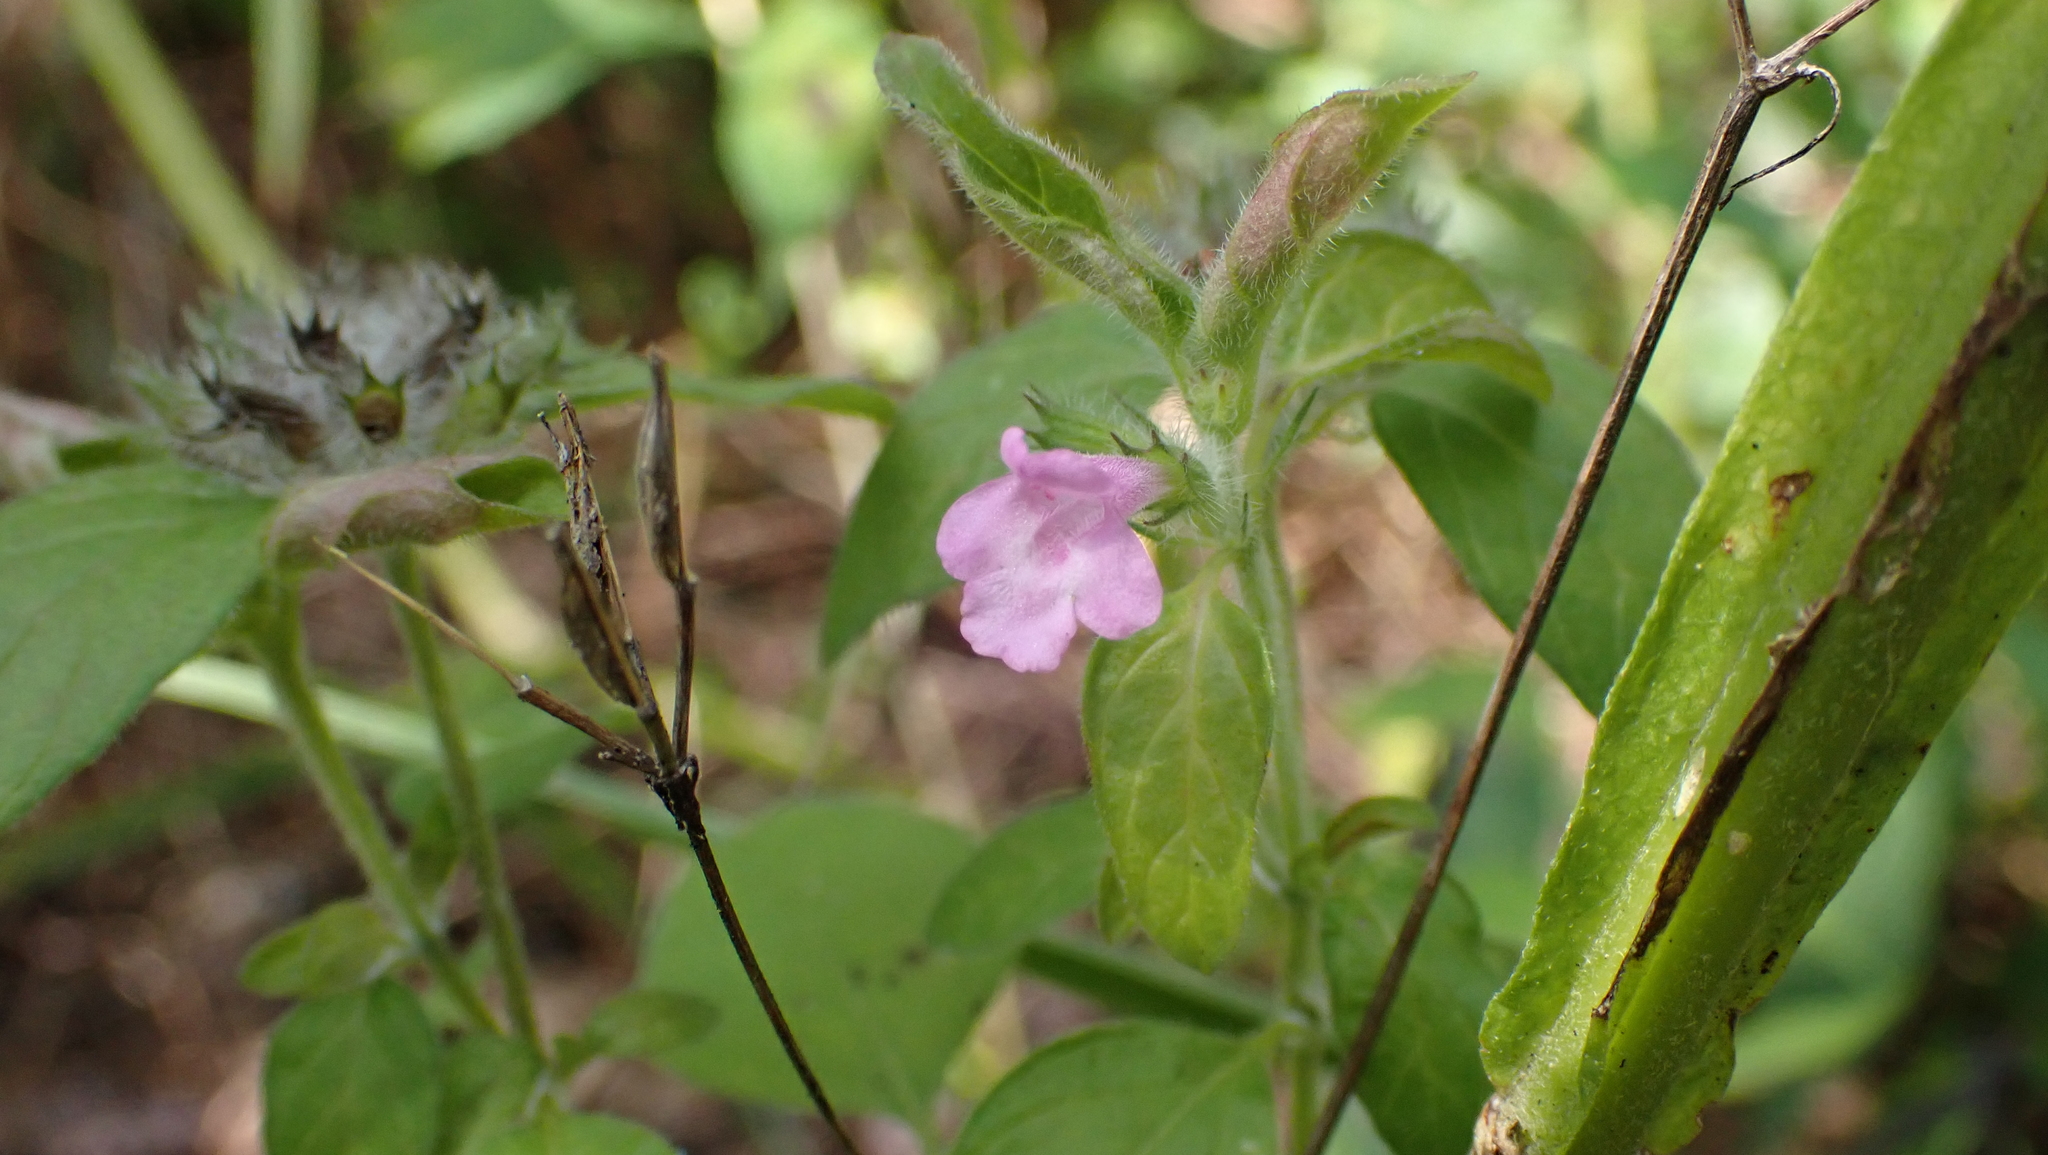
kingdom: Plantae
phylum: Tracheophyta
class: Magnoliopsida
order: Lamiales
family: Lamiaceae
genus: Clinopodium
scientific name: Clinopodium vulgare
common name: Wild basil
